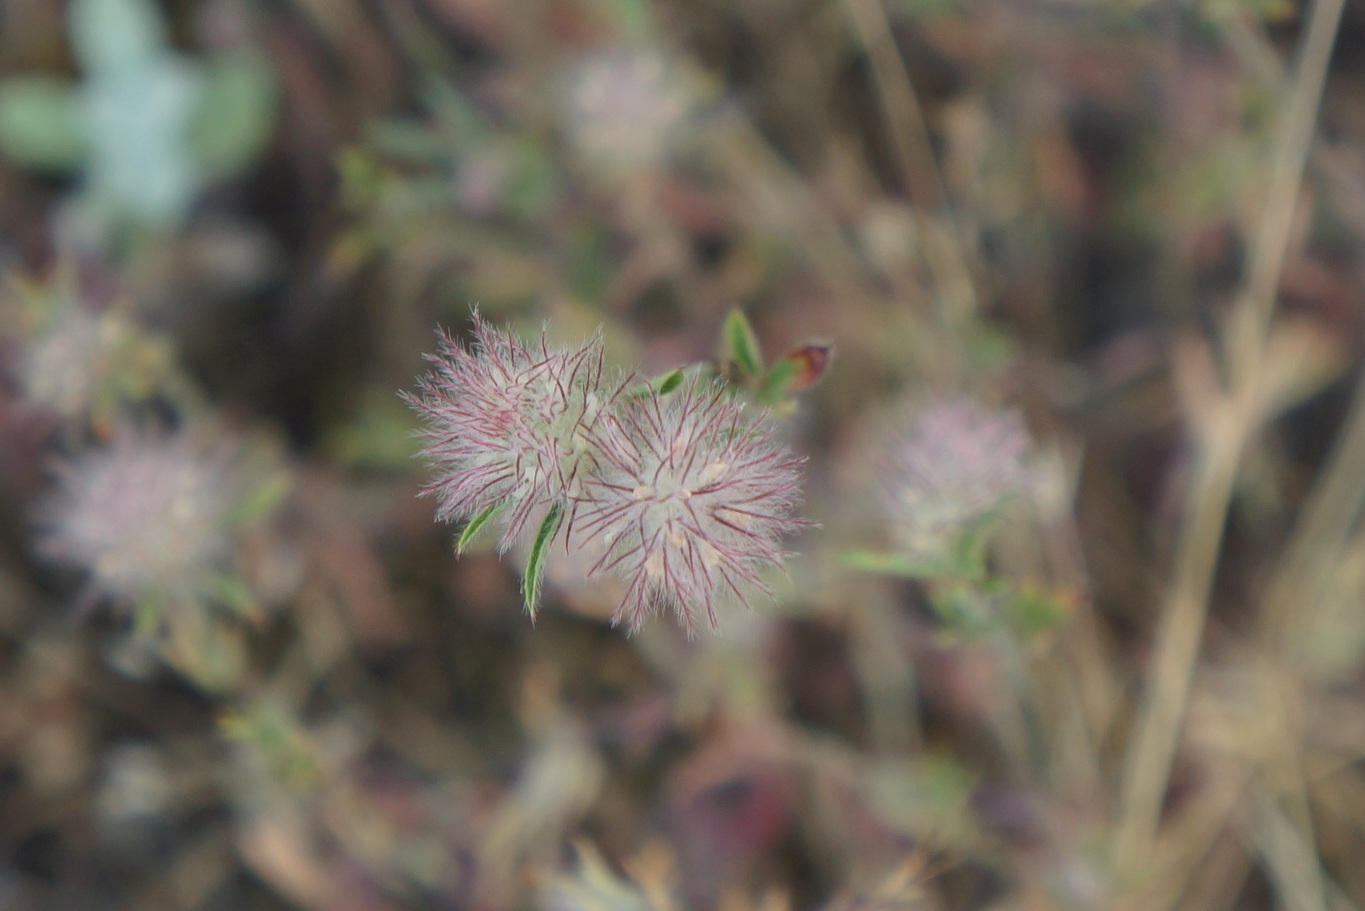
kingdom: Plantae
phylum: Tracheophyta
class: Magnoliopsida
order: Fabales
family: Fabaceae
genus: Trifolium
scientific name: Trifolium arvense
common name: Hare's-foot clover
